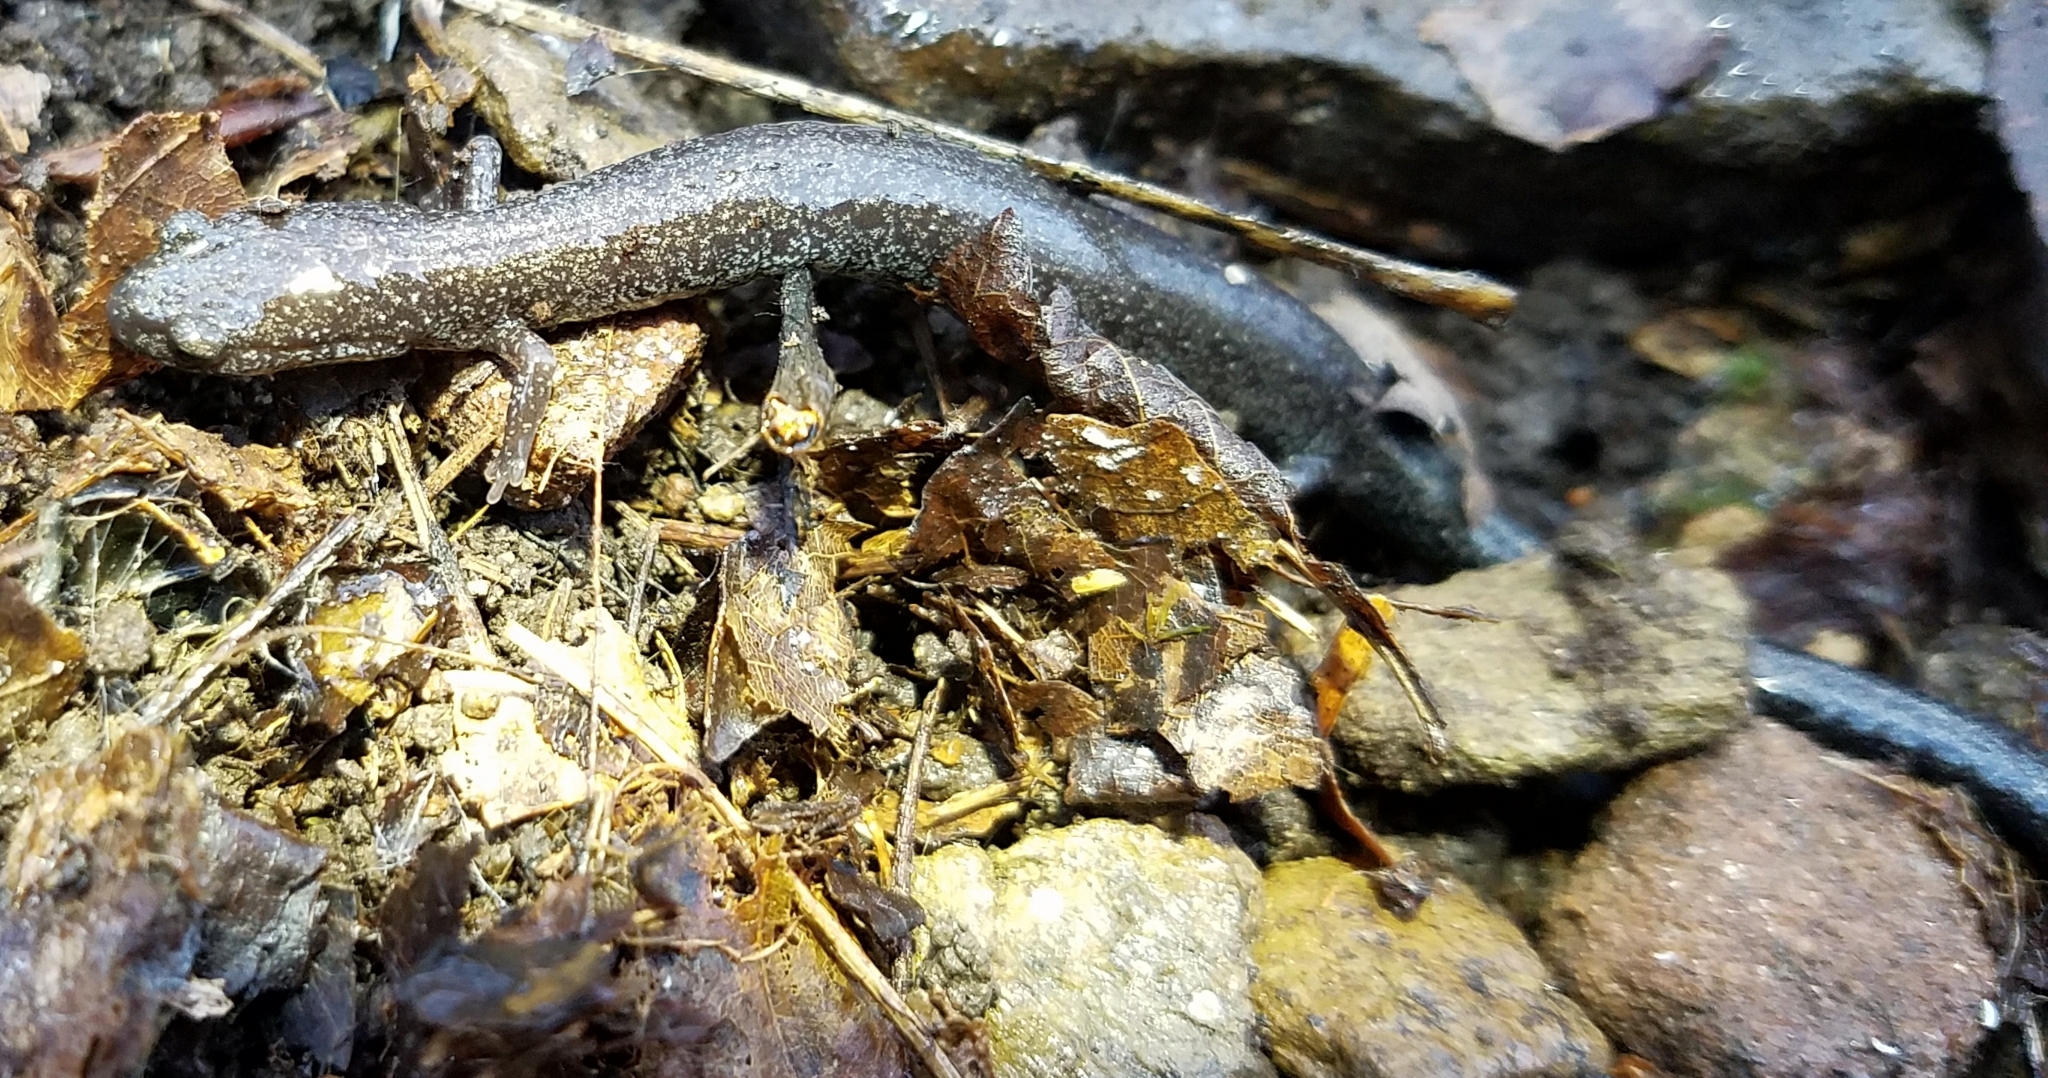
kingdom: Animalia
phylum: Chordata
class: Amphibia
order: Caudata
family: Plethodontidae
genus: Plethodon
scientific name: Plethodon electromorphus
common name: Northern ravine salamander
